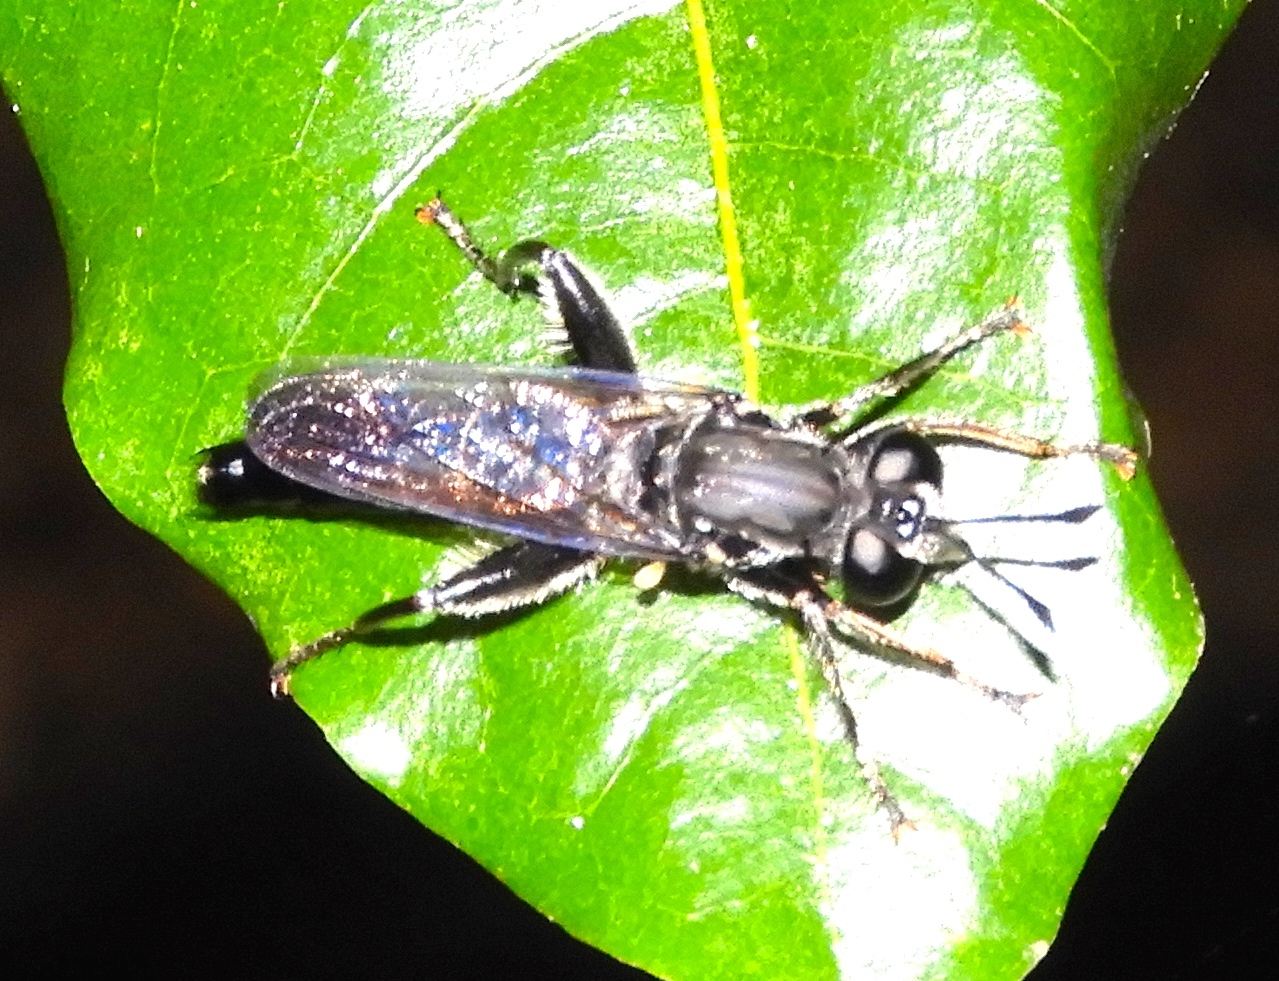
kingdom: Animalia
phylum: Arthropoda
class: Insecta
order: Diptera
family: Mydidae
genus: Mydas
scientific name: Mydas
